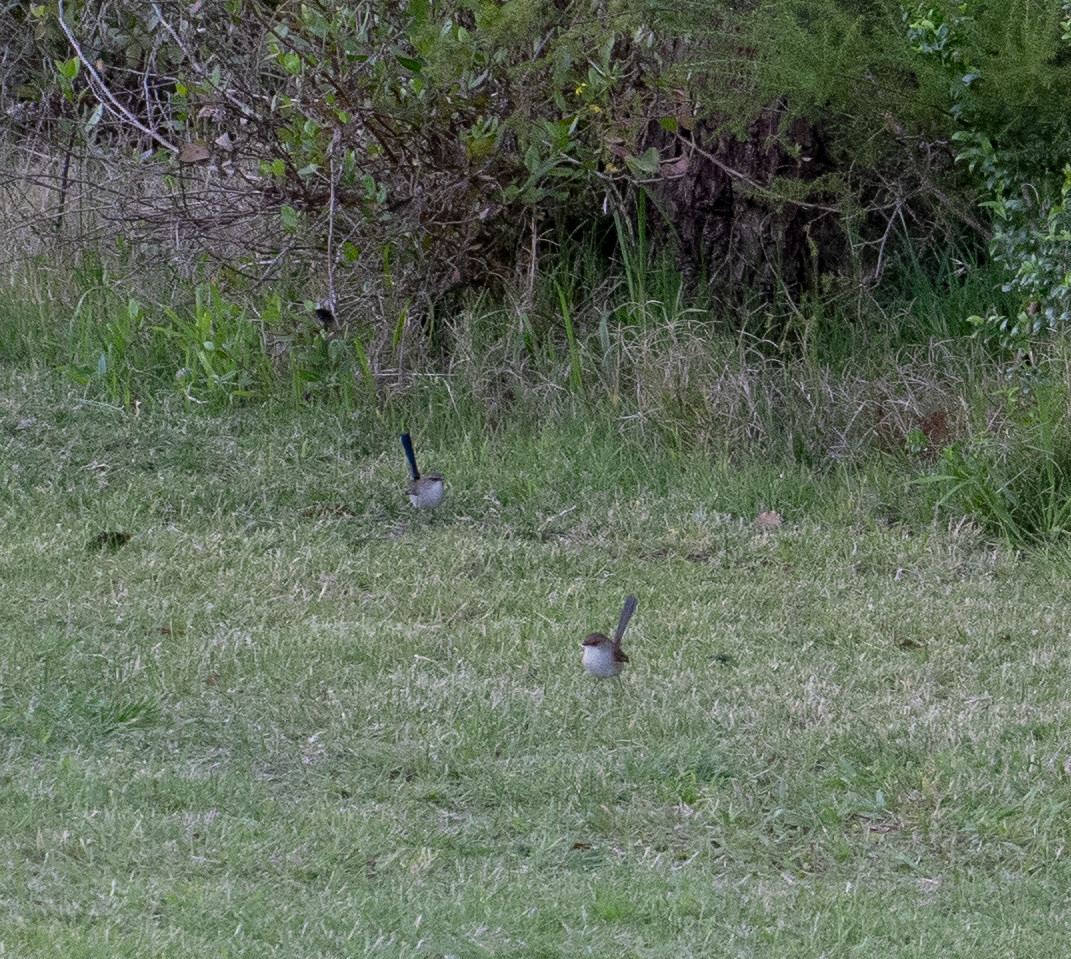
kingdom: Animalia
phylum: Chordata
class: Aves
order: Passeriformes
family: Maluridae
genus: Malurus
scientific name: Malurus cyaneus
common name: Superb fairywren
